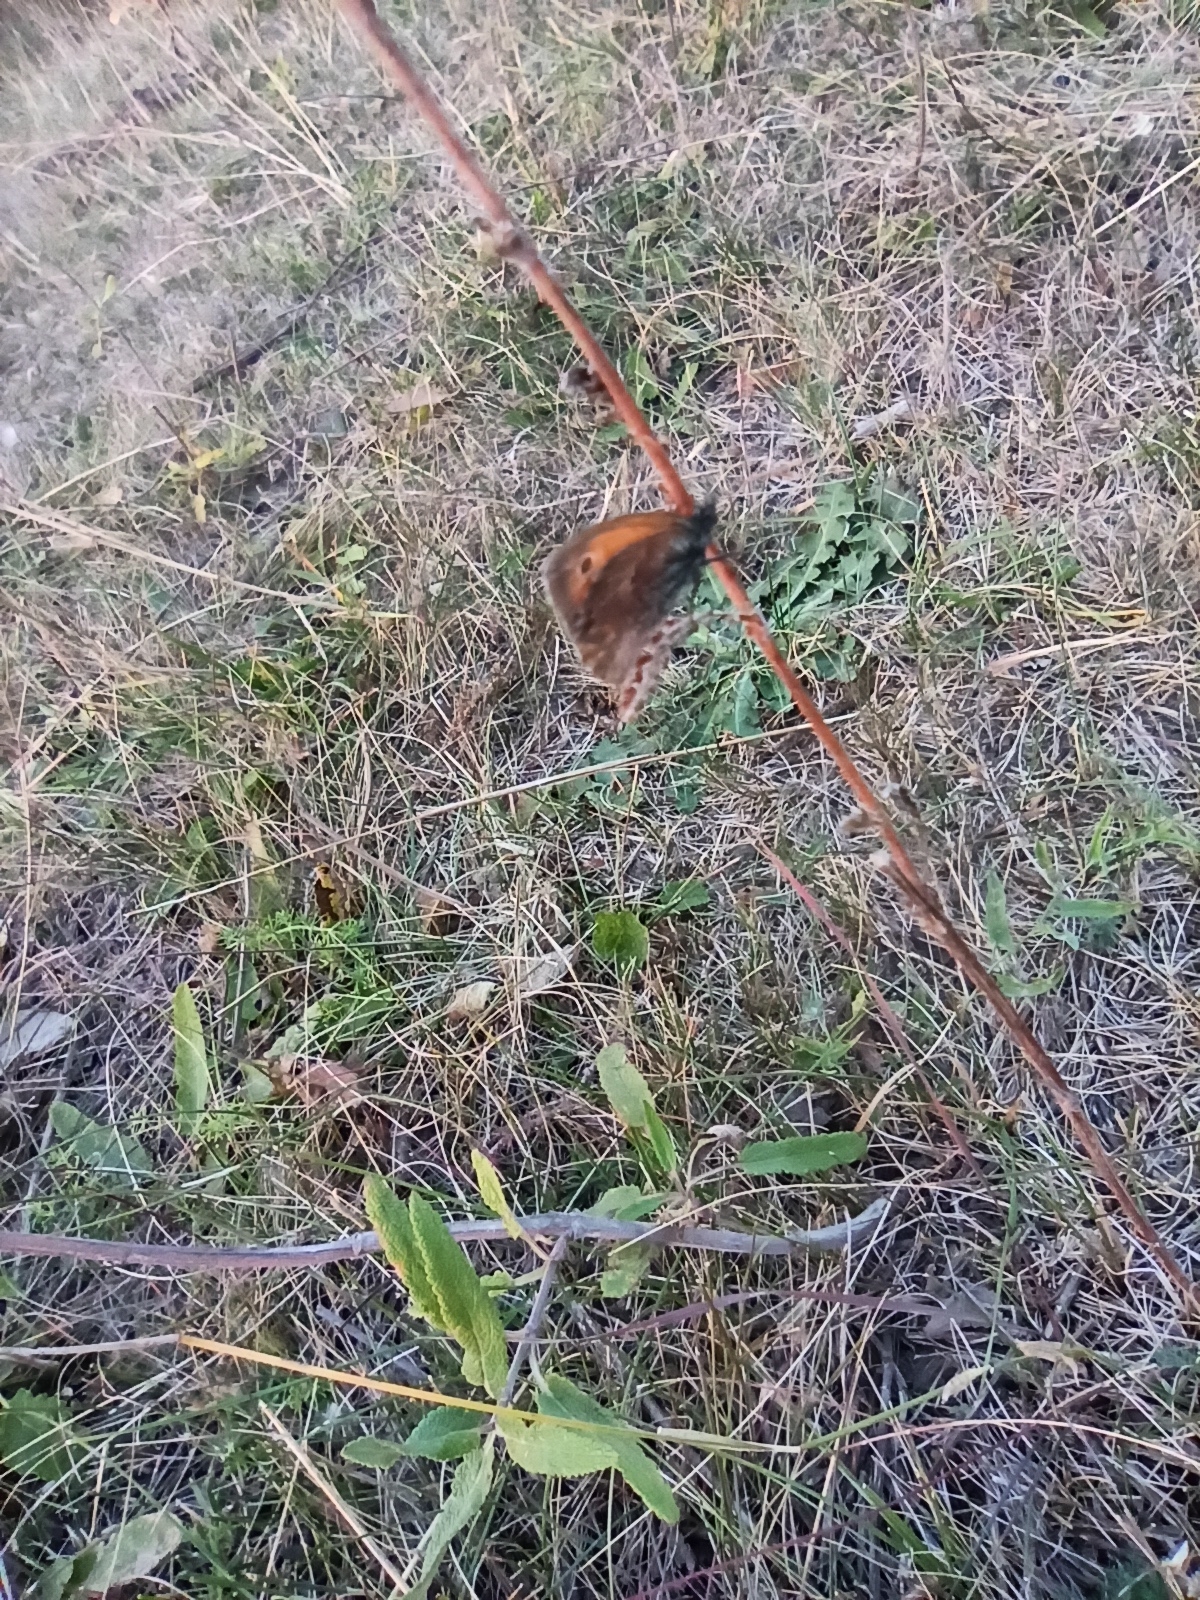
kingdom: Animalia
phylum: Arthropoda
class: Insecta
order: Lepidoptera
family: Nymphalidae
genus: Coenonympha
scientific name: Coenonympha pamphilus
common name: Small heath
